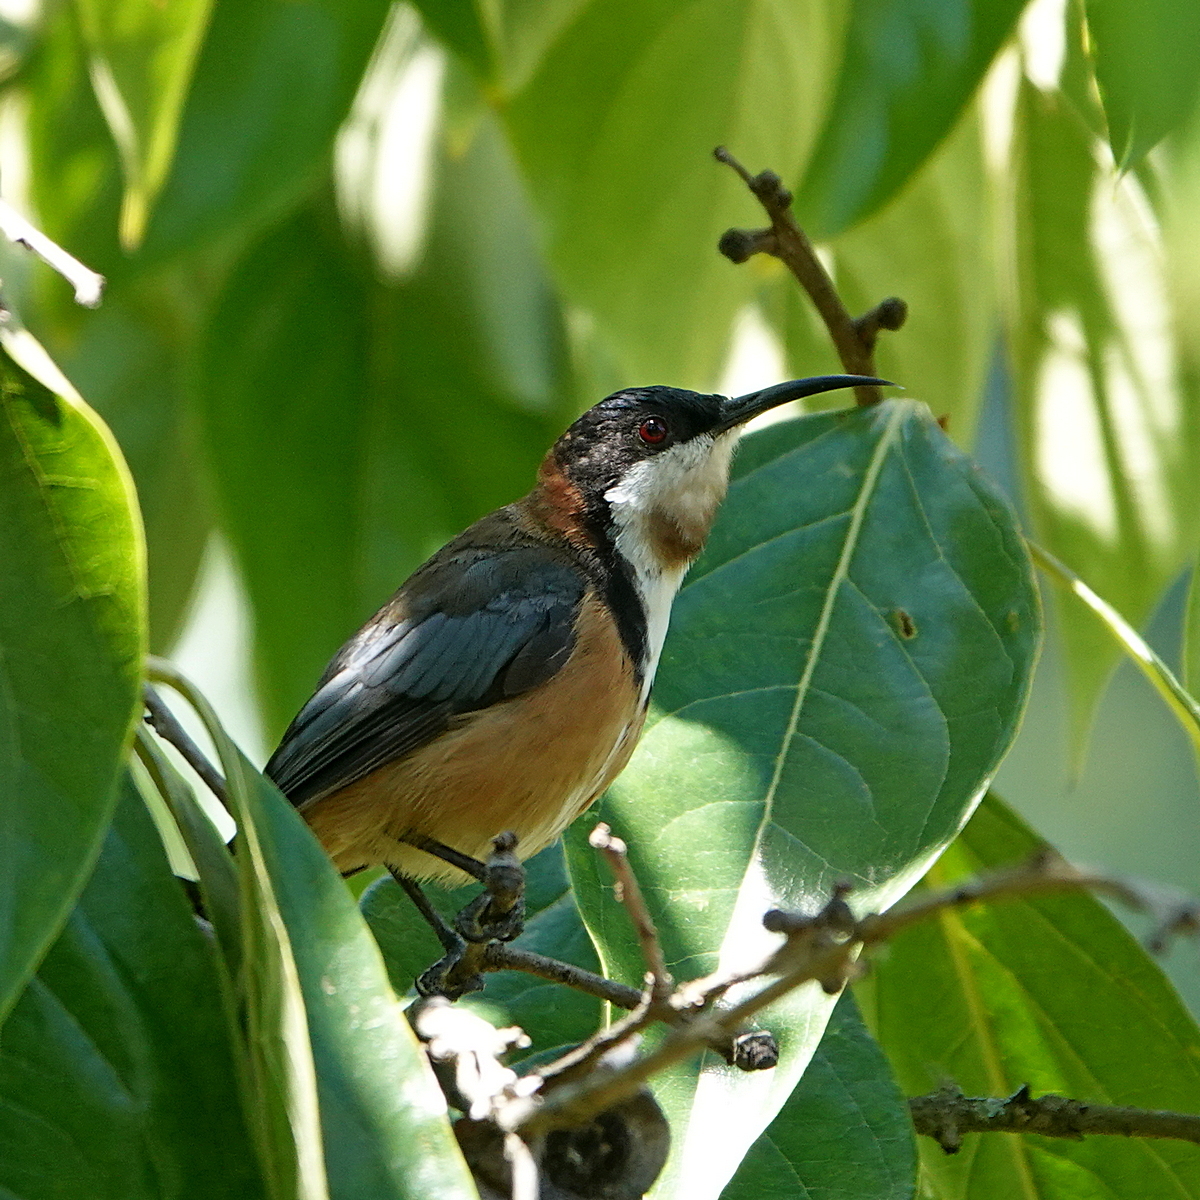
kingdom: Animalia
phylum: Chordata
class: Aves
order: Passeriformes
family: Meliphagidae
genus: Acanthorhynchus
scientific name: Acanthorhynchus tenuirostris
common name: Eastern spinebill
